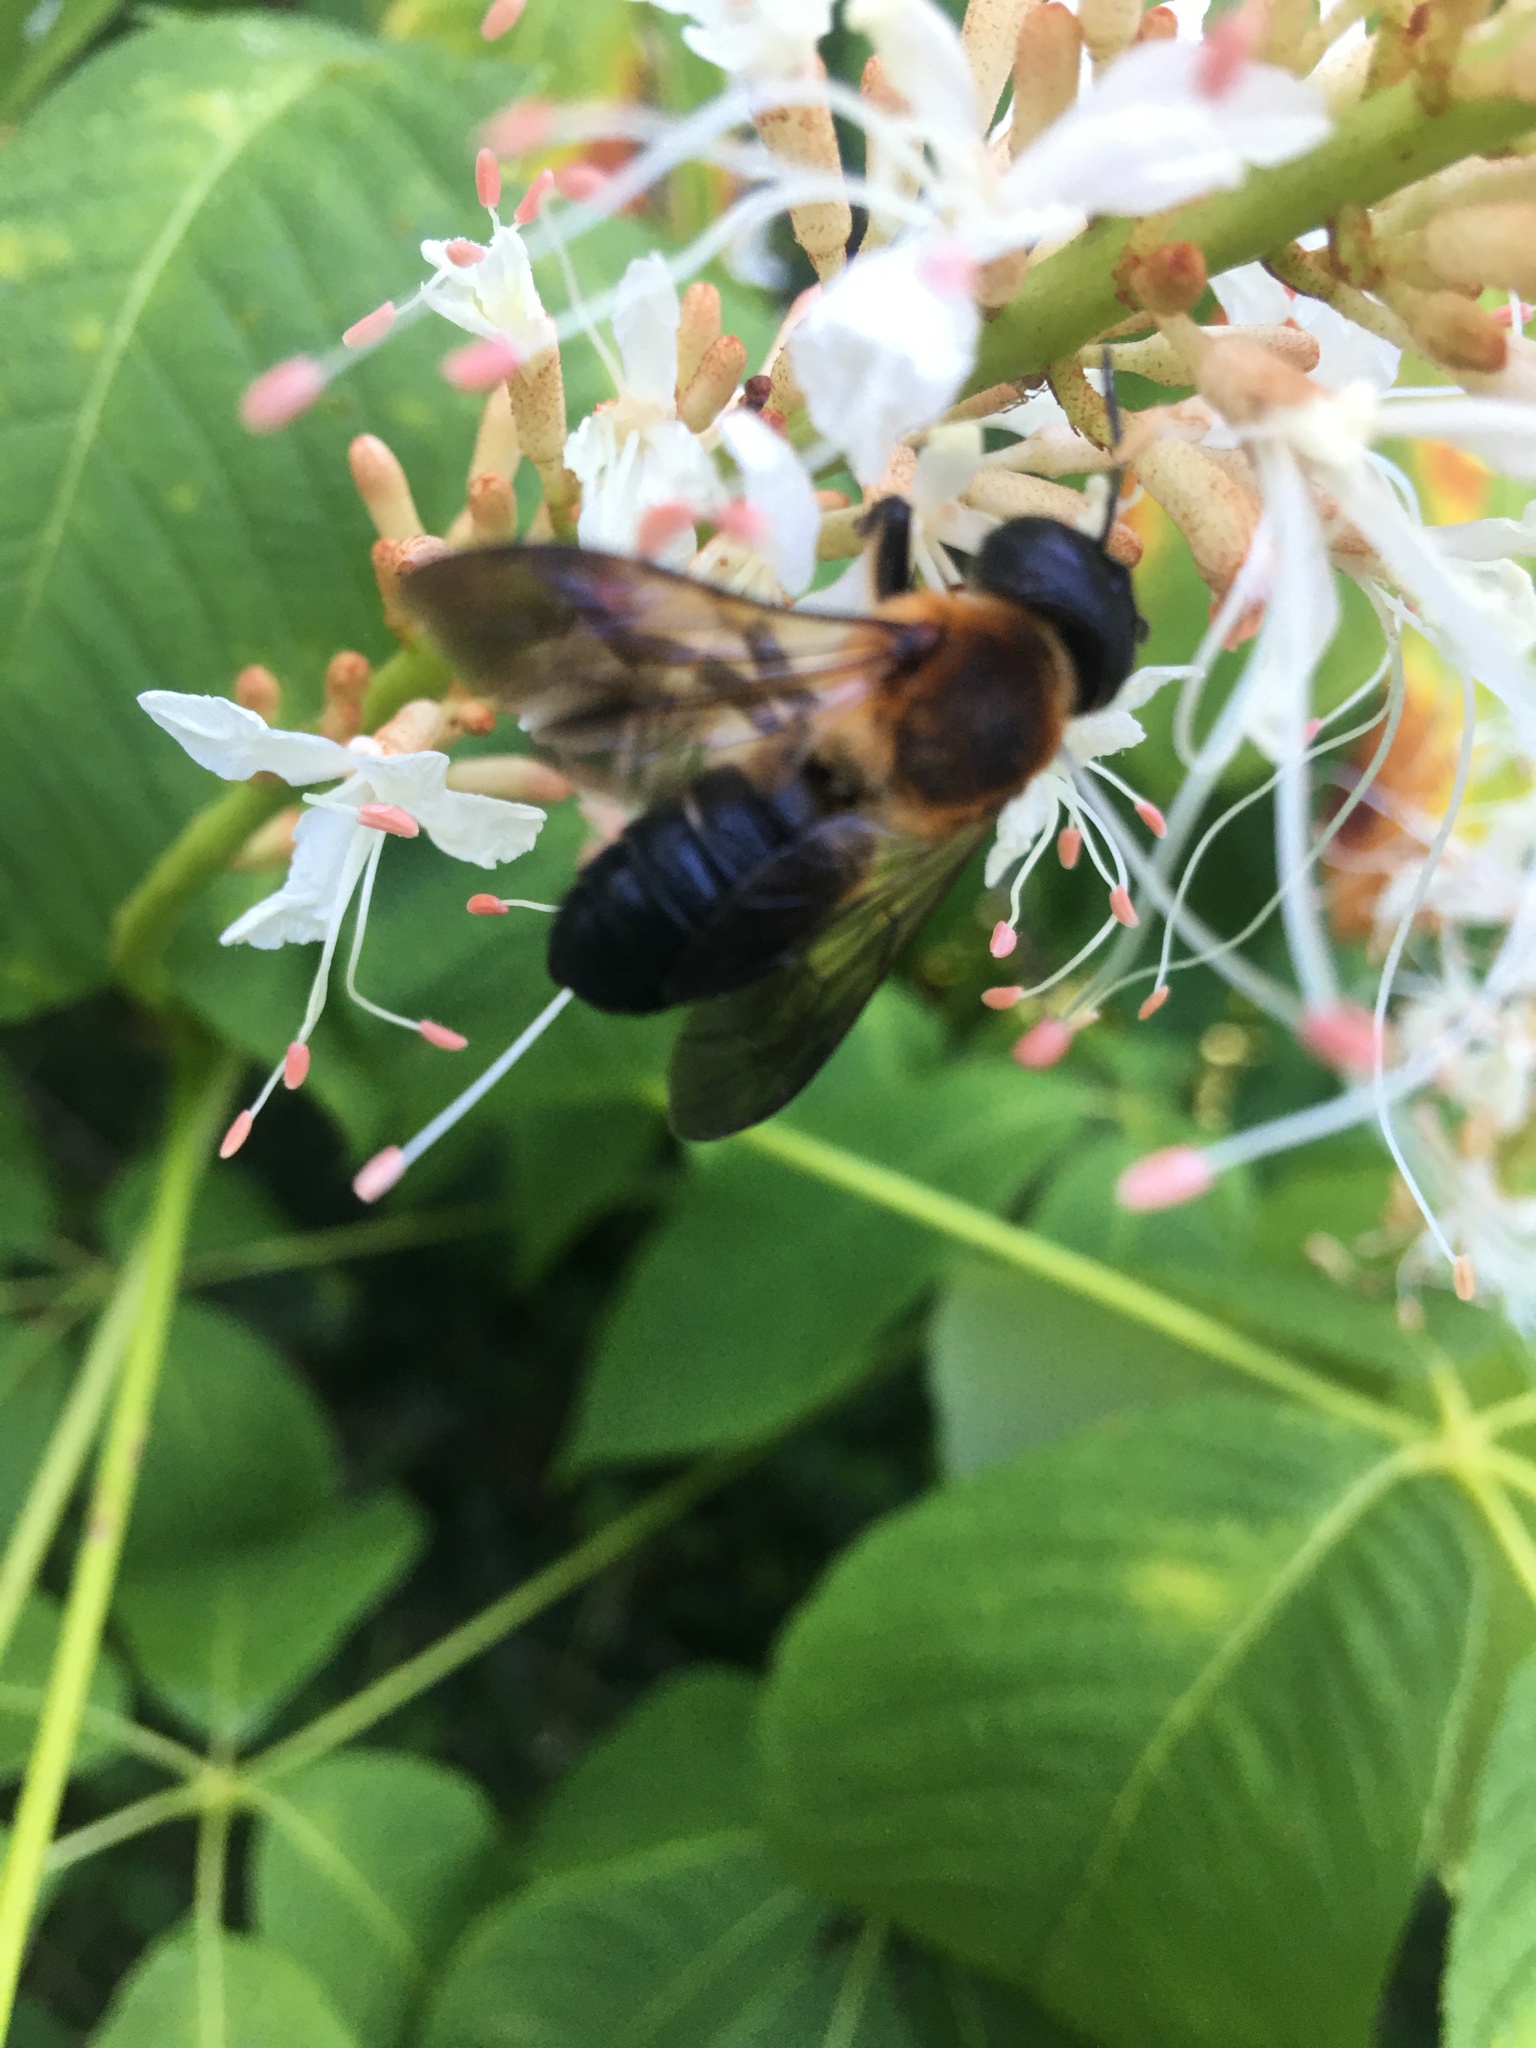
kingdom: Animalia
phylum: Arthropoda
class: Insecta
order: Hymenoptera
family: Megachilidae
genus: Megachile
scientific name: Megachile sculpturalis
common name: Sculptured resin bee
